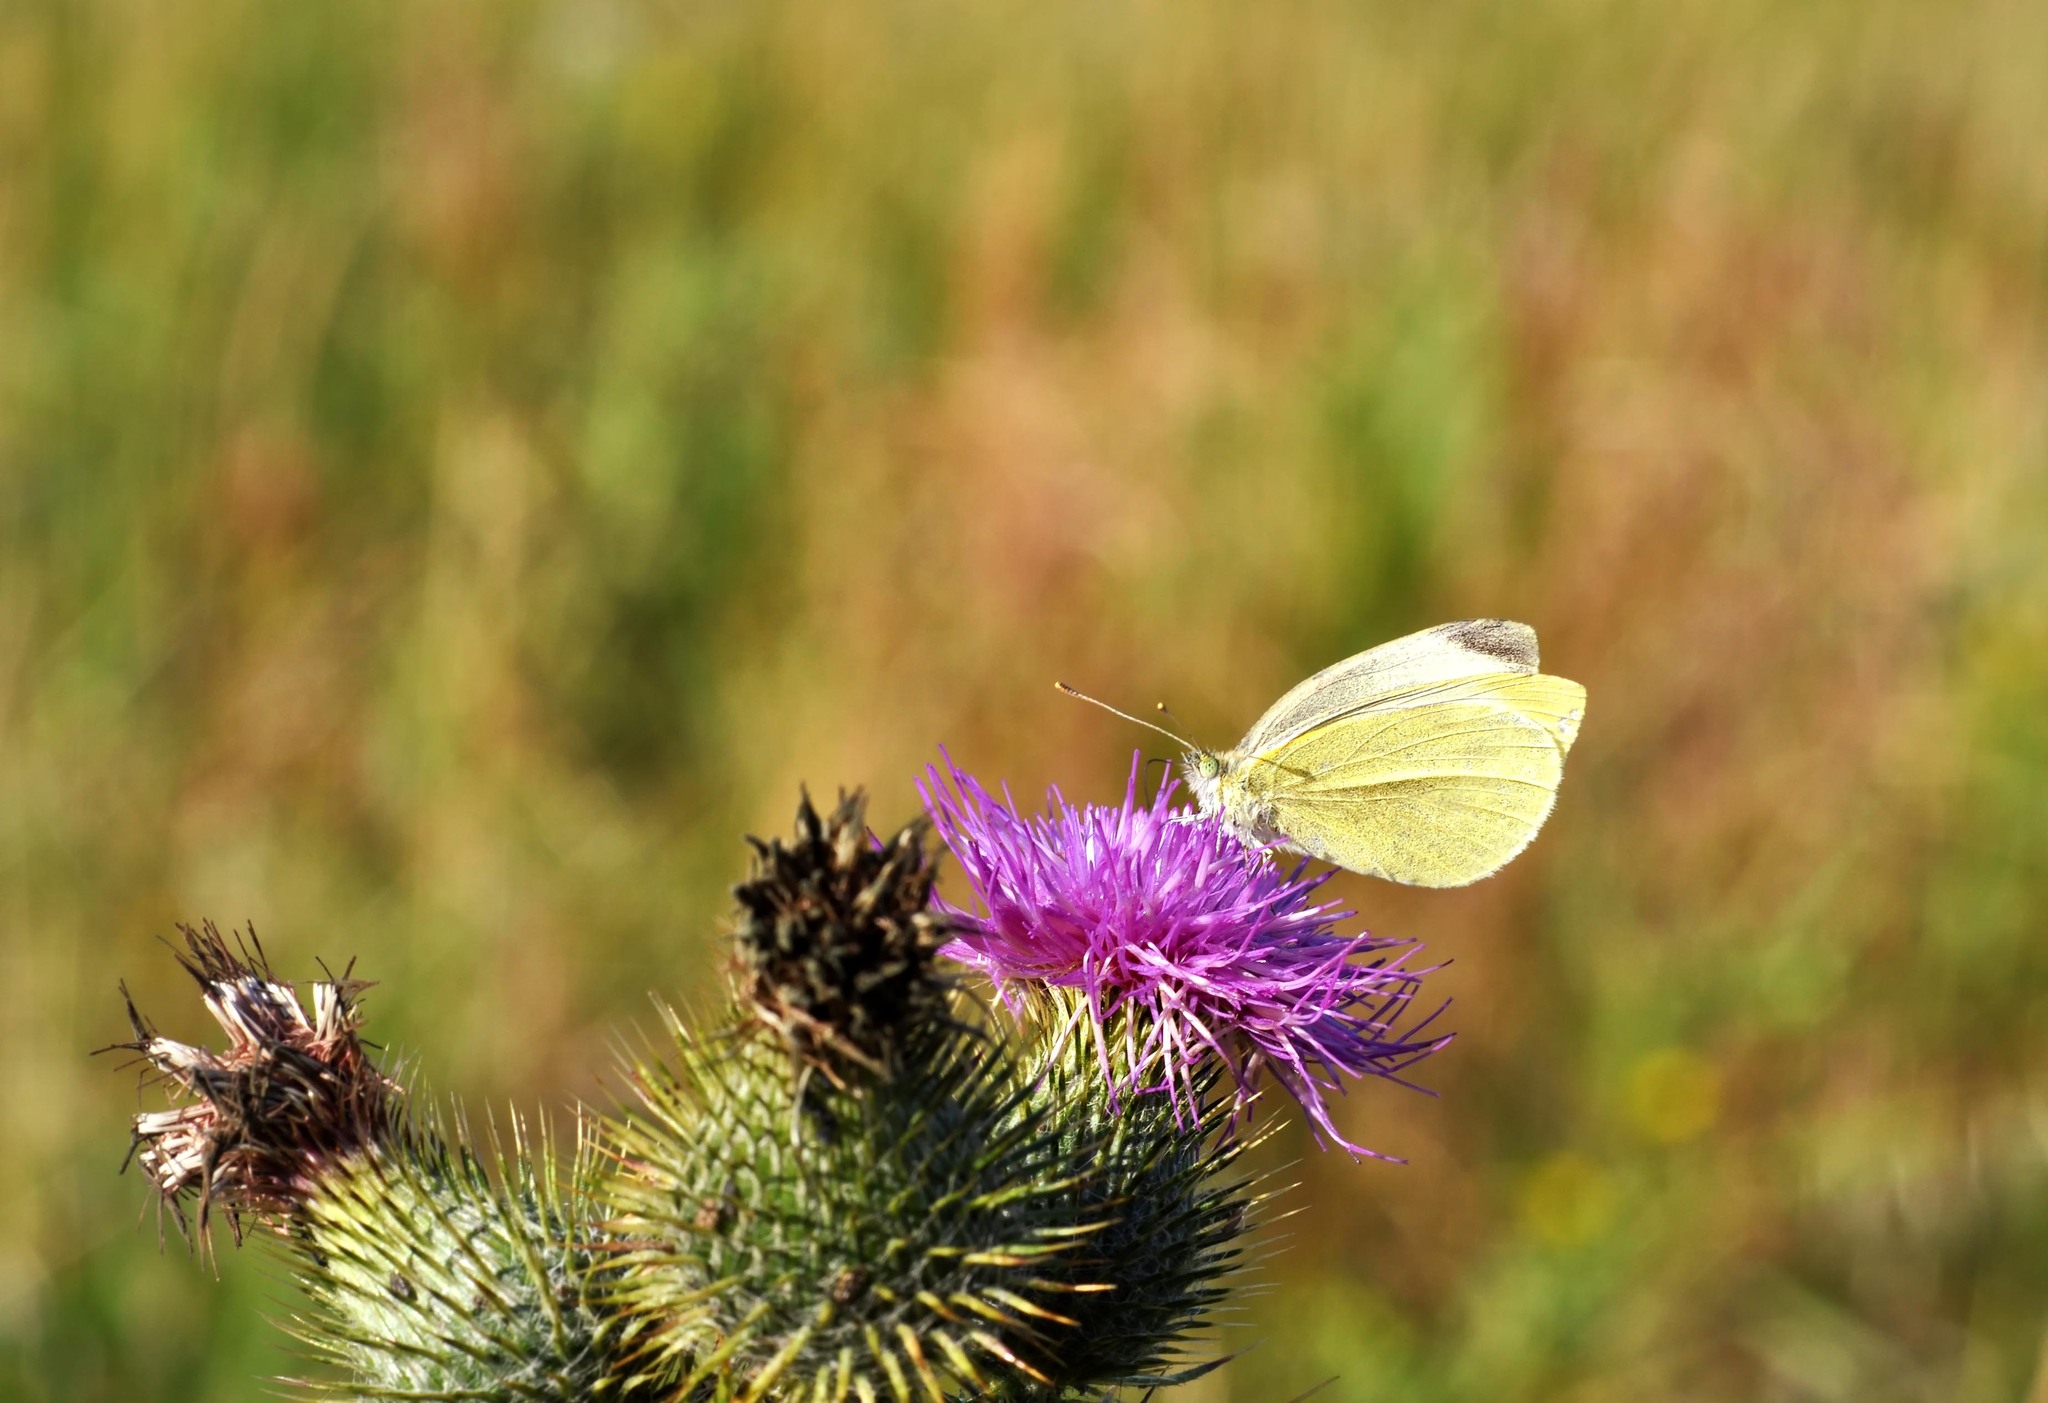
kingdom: Animalia
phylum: Arthropoda
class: Insecta
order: Lepidoptera
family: Pieridae
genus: Pieris
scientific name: Pieris rapae
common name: Small white
